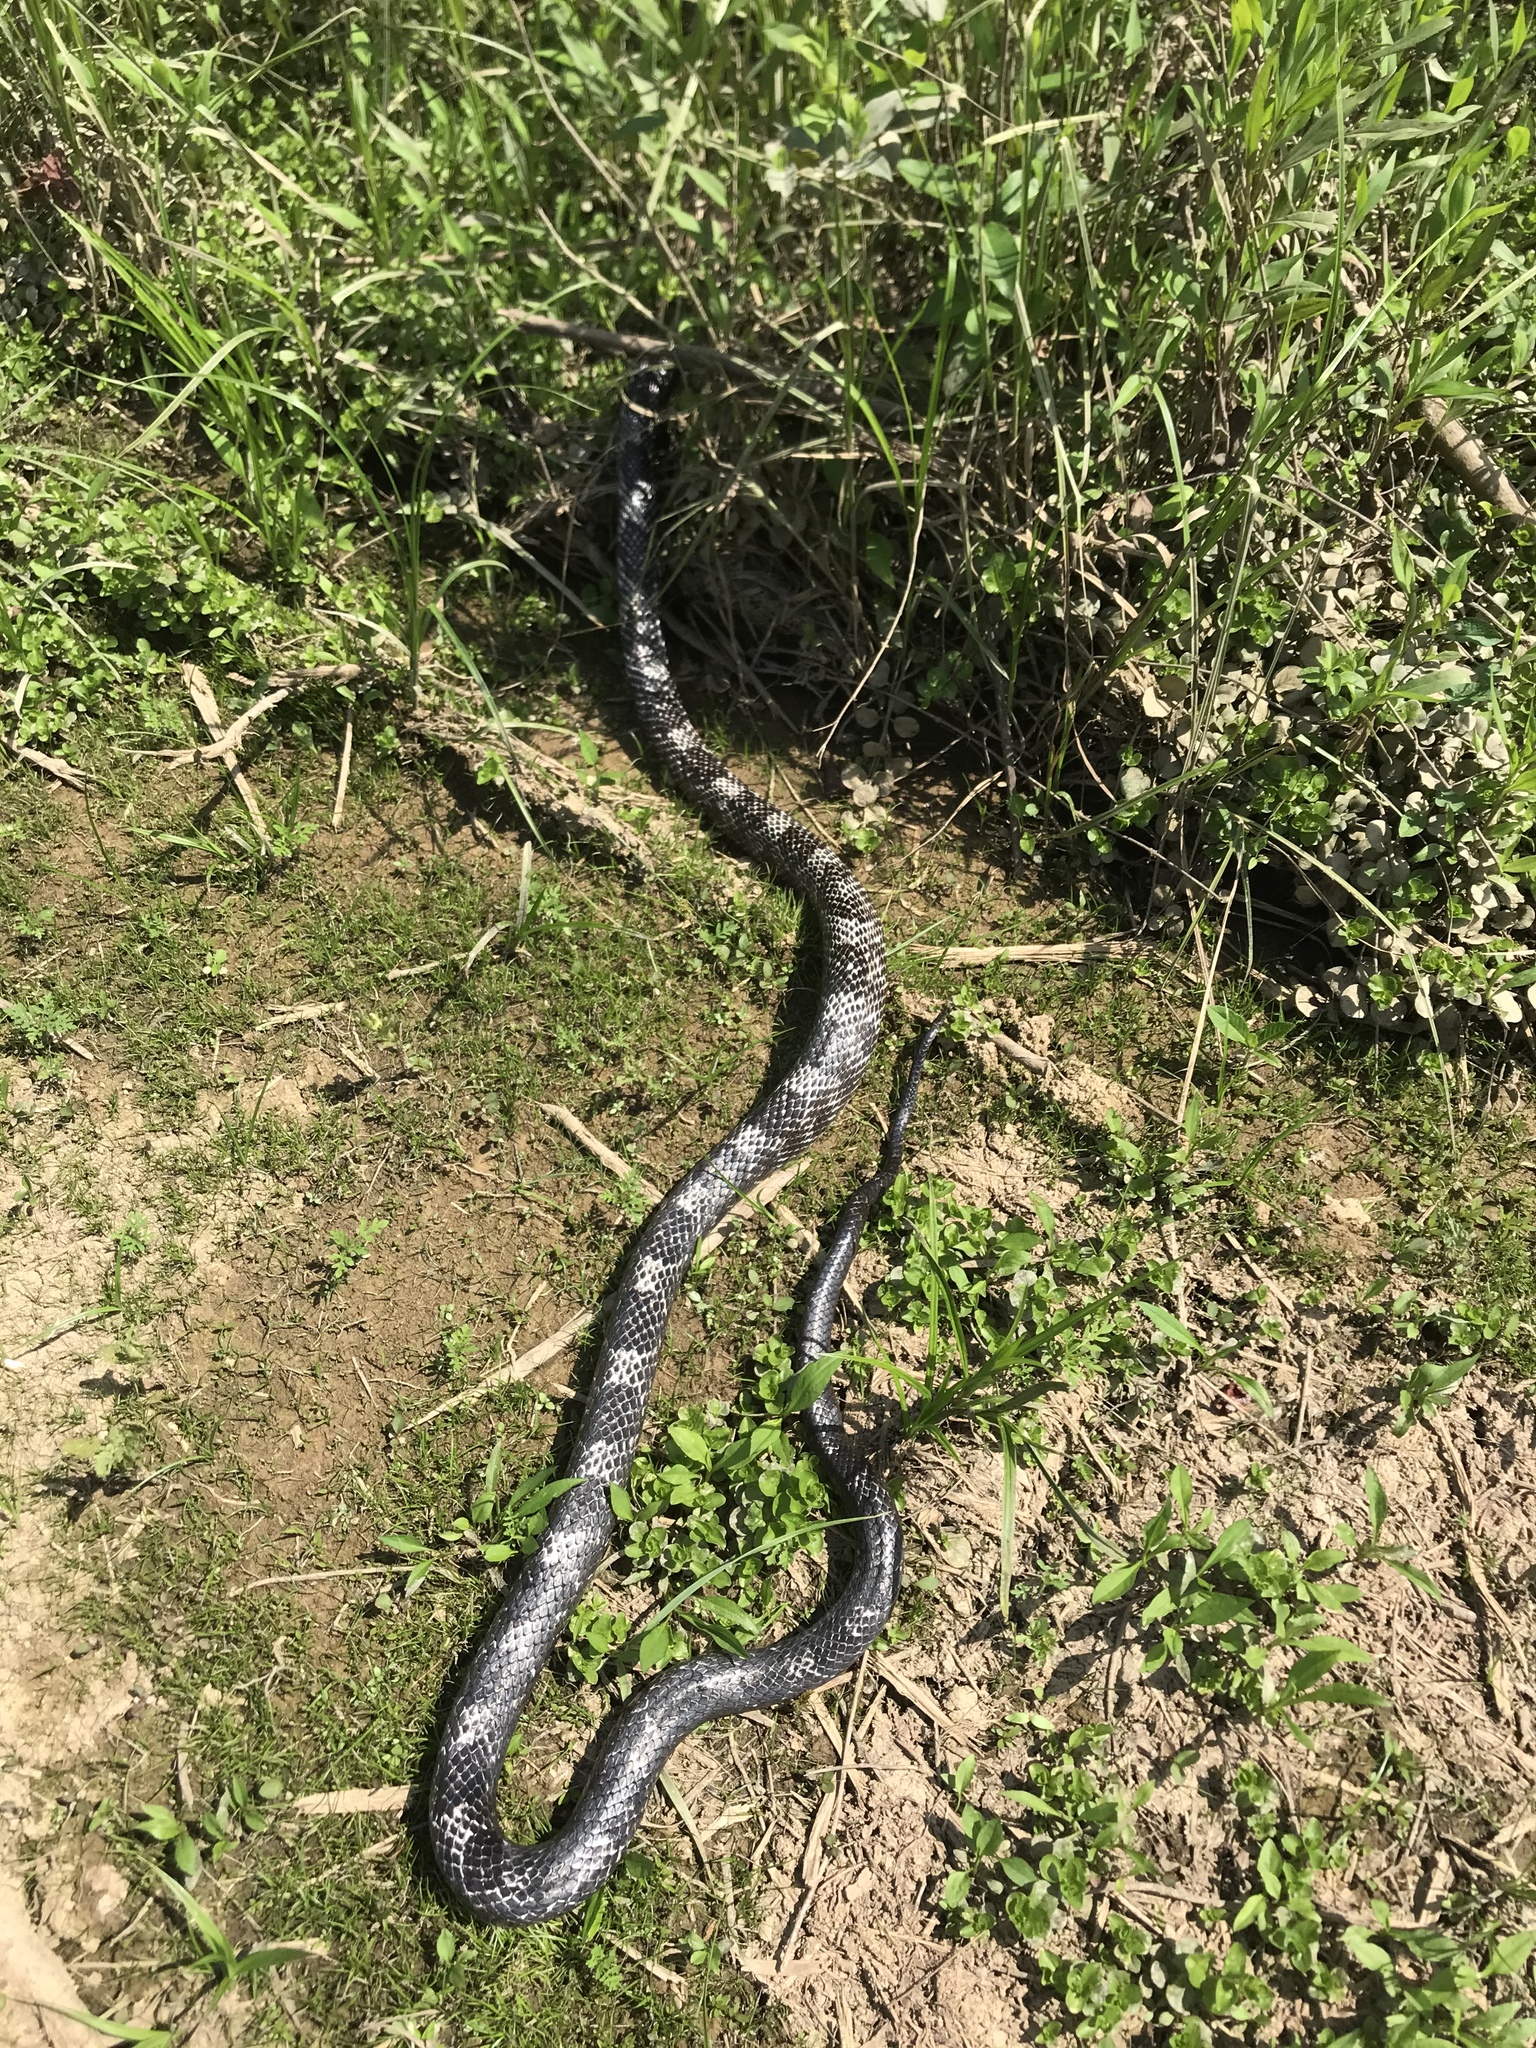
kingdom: Animalia
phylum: Chordata
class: Squamata
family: Colubridae
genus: Pantherophis
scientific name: Pantherophis spiloides
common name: Gray rat snake
